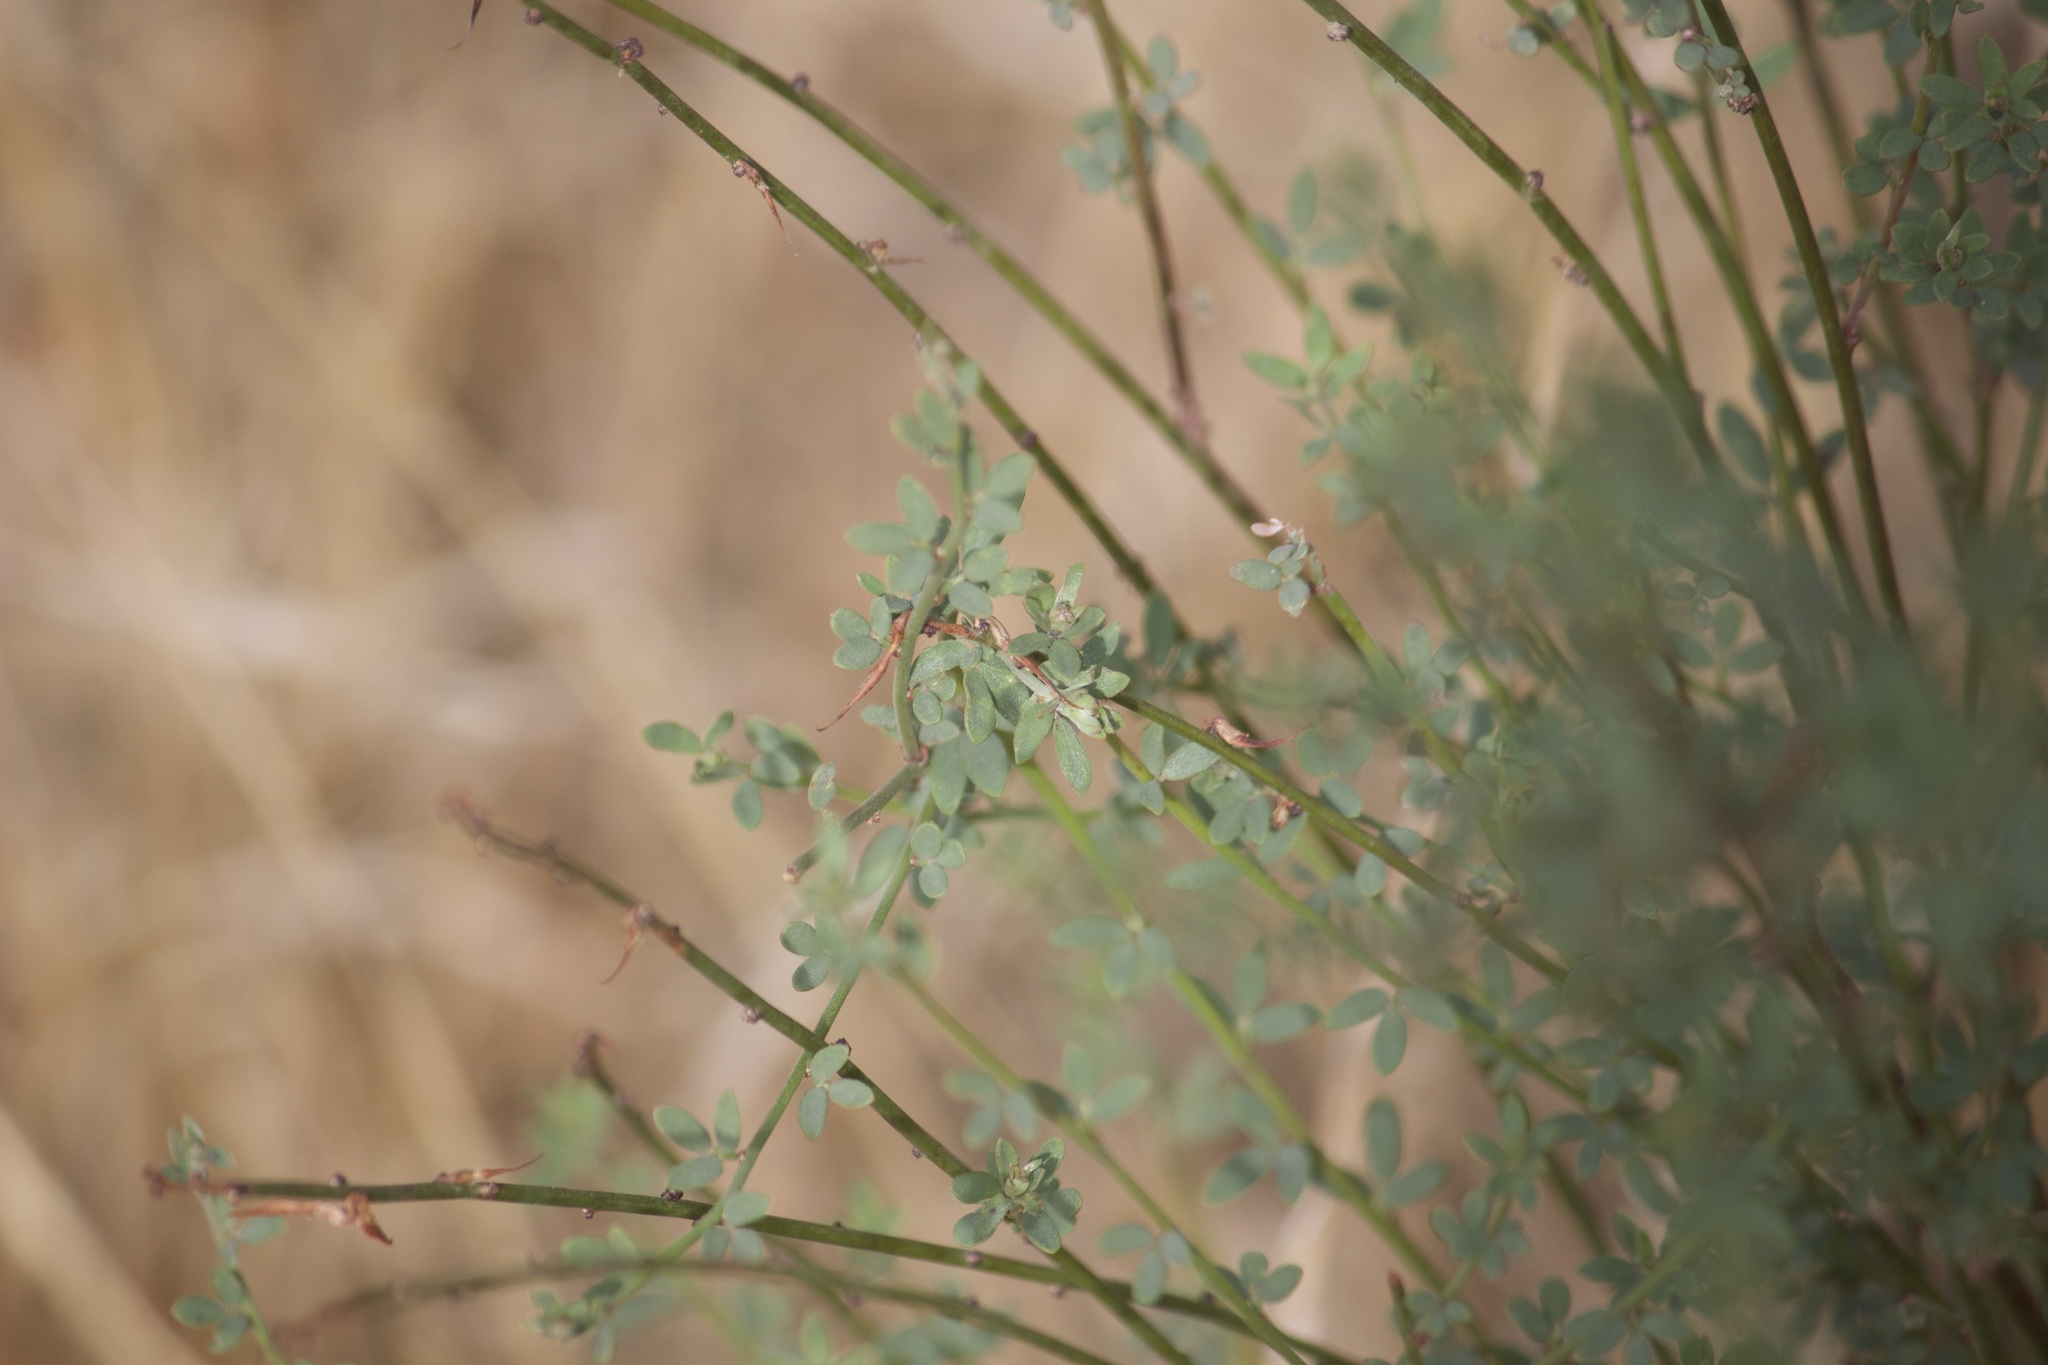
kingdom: Plantae
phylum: Tracheophyta
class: Magnoliopsida
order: Fabales
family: Fabaceae
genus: Acmispon
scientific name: Acmispon glaber
